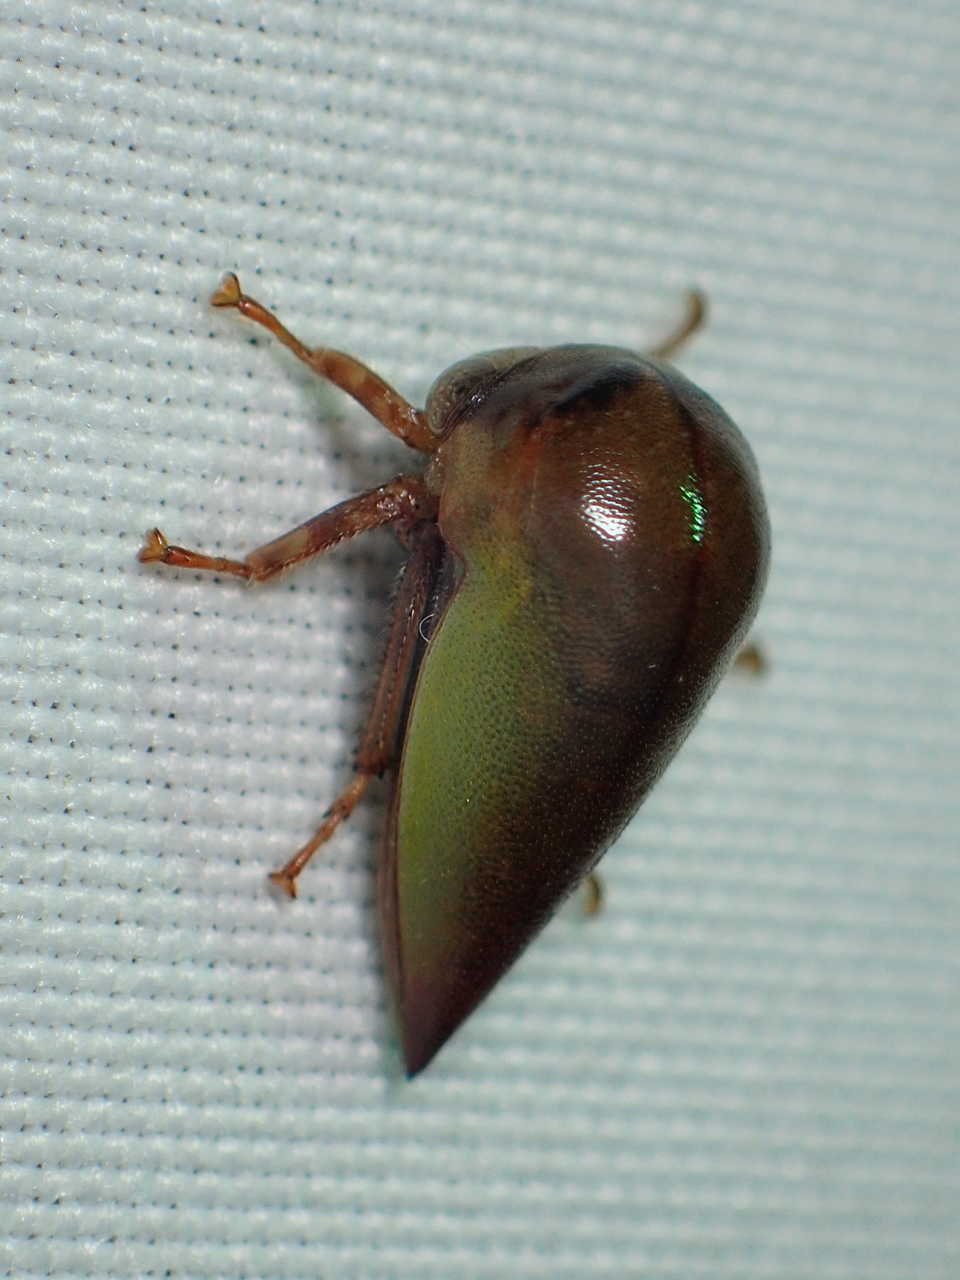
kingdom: Animalia
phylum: Arthropoda
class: Insecta
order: Hemiptera
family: Membracidae
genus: Hebetica
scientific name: Hebetica
